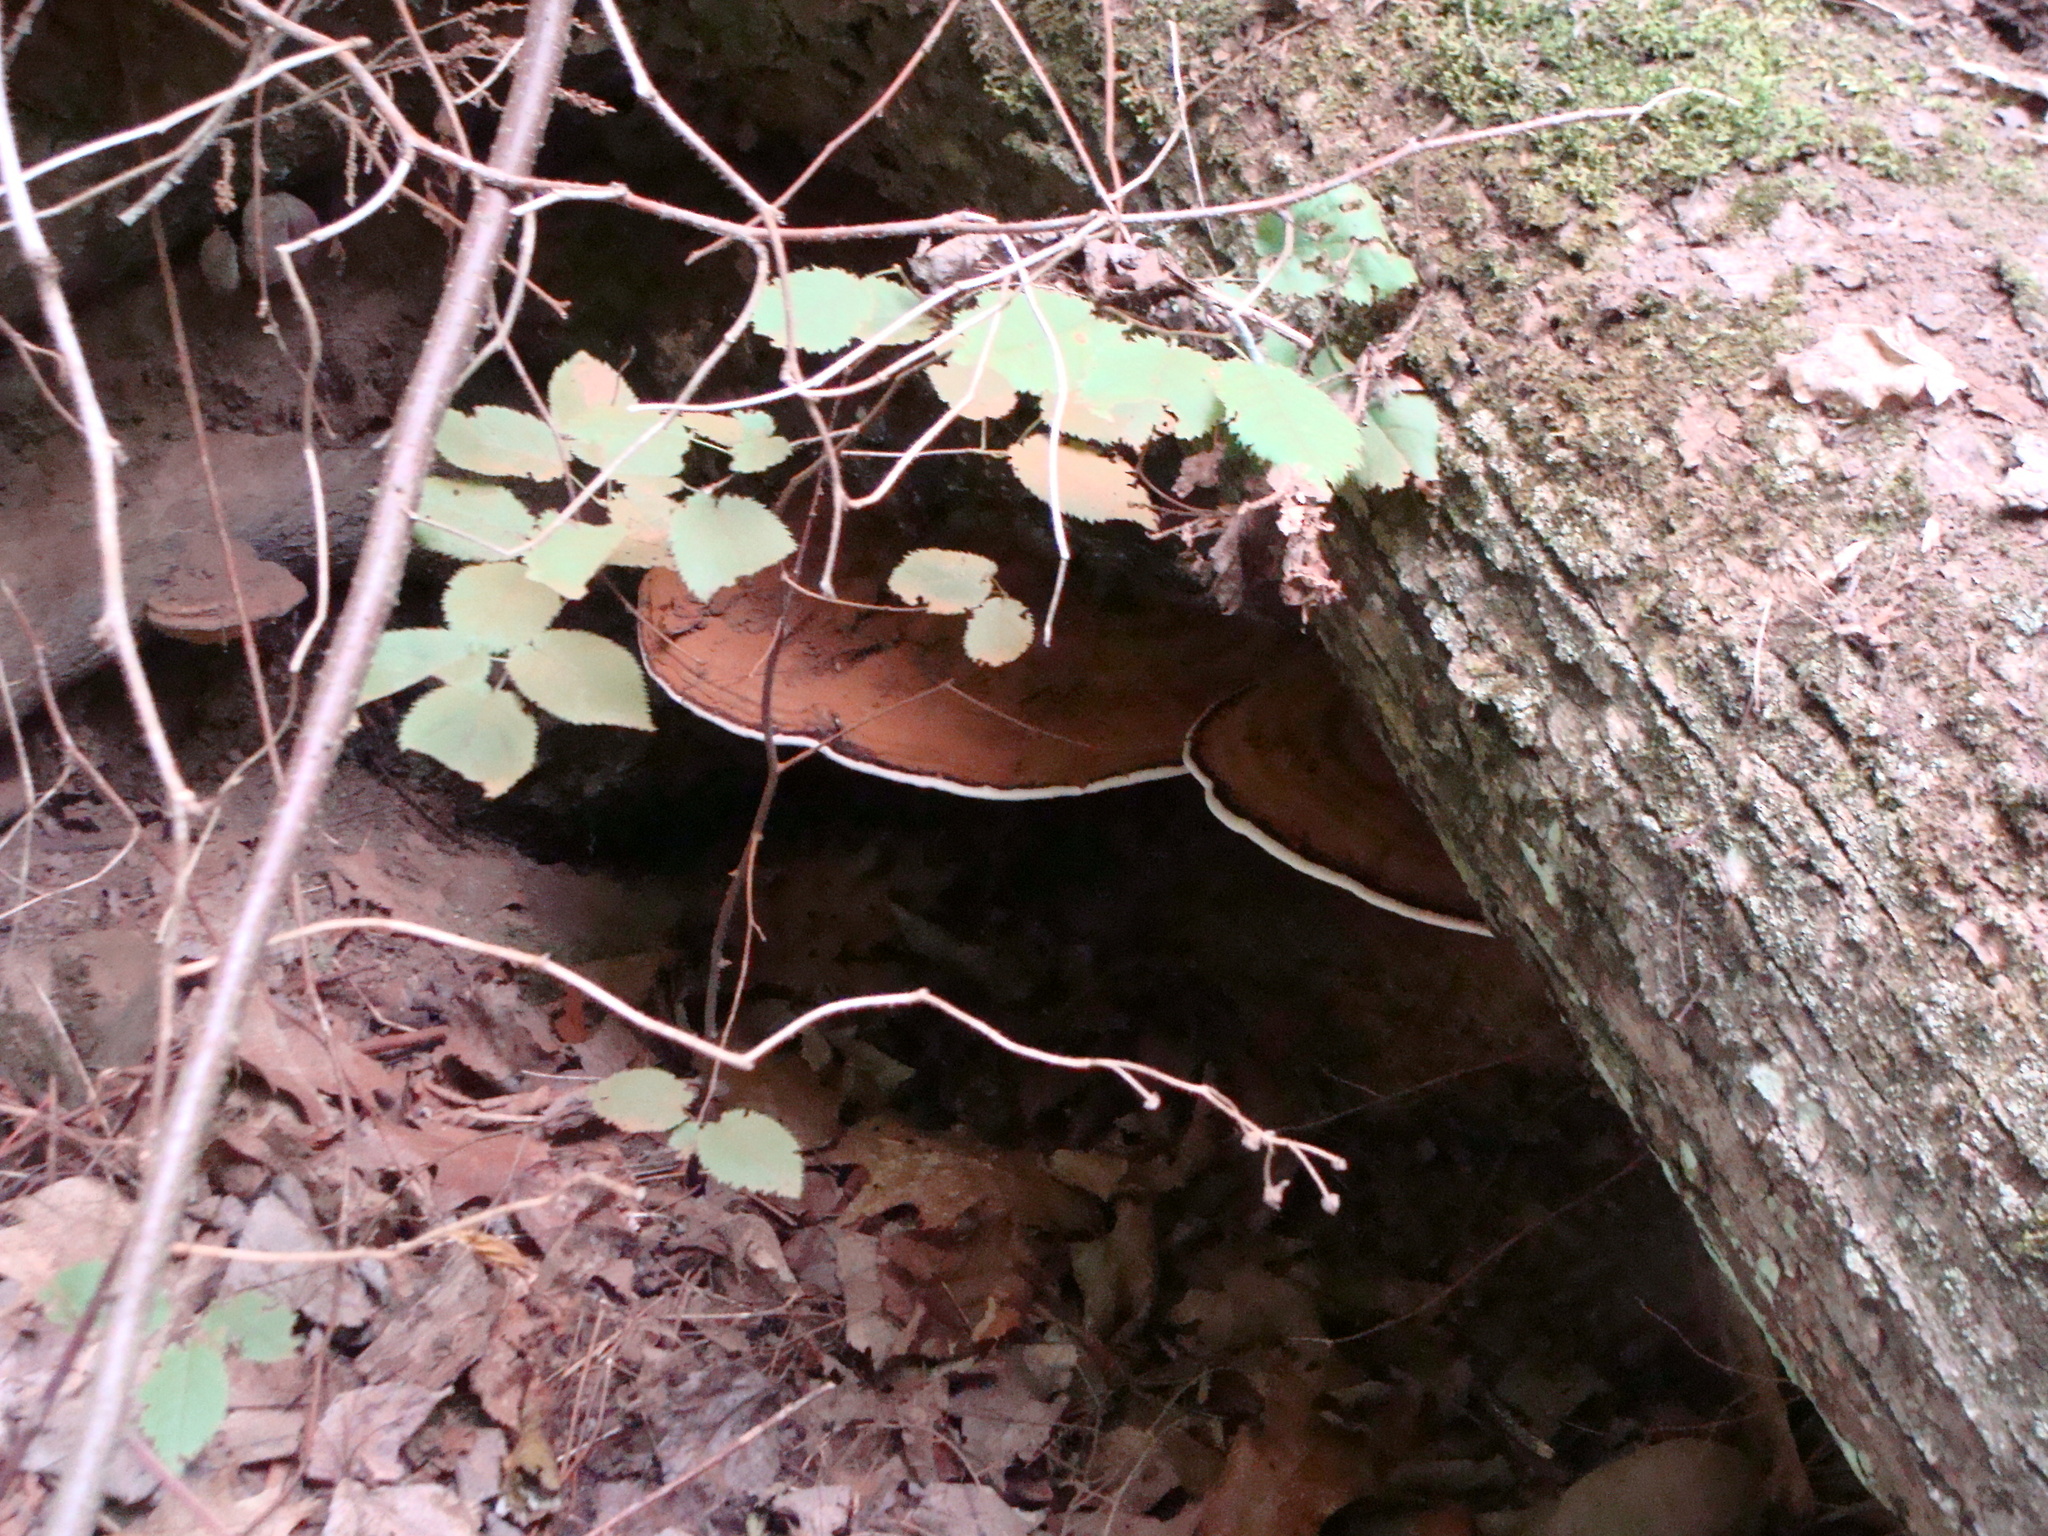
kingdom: Fungi
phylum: Basidiomycota
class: Agaricomycetes
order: Polyporales
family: Polyporaceae
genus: Ganoderma
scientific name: Ganoderma applanatum
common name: Artist's bracket
